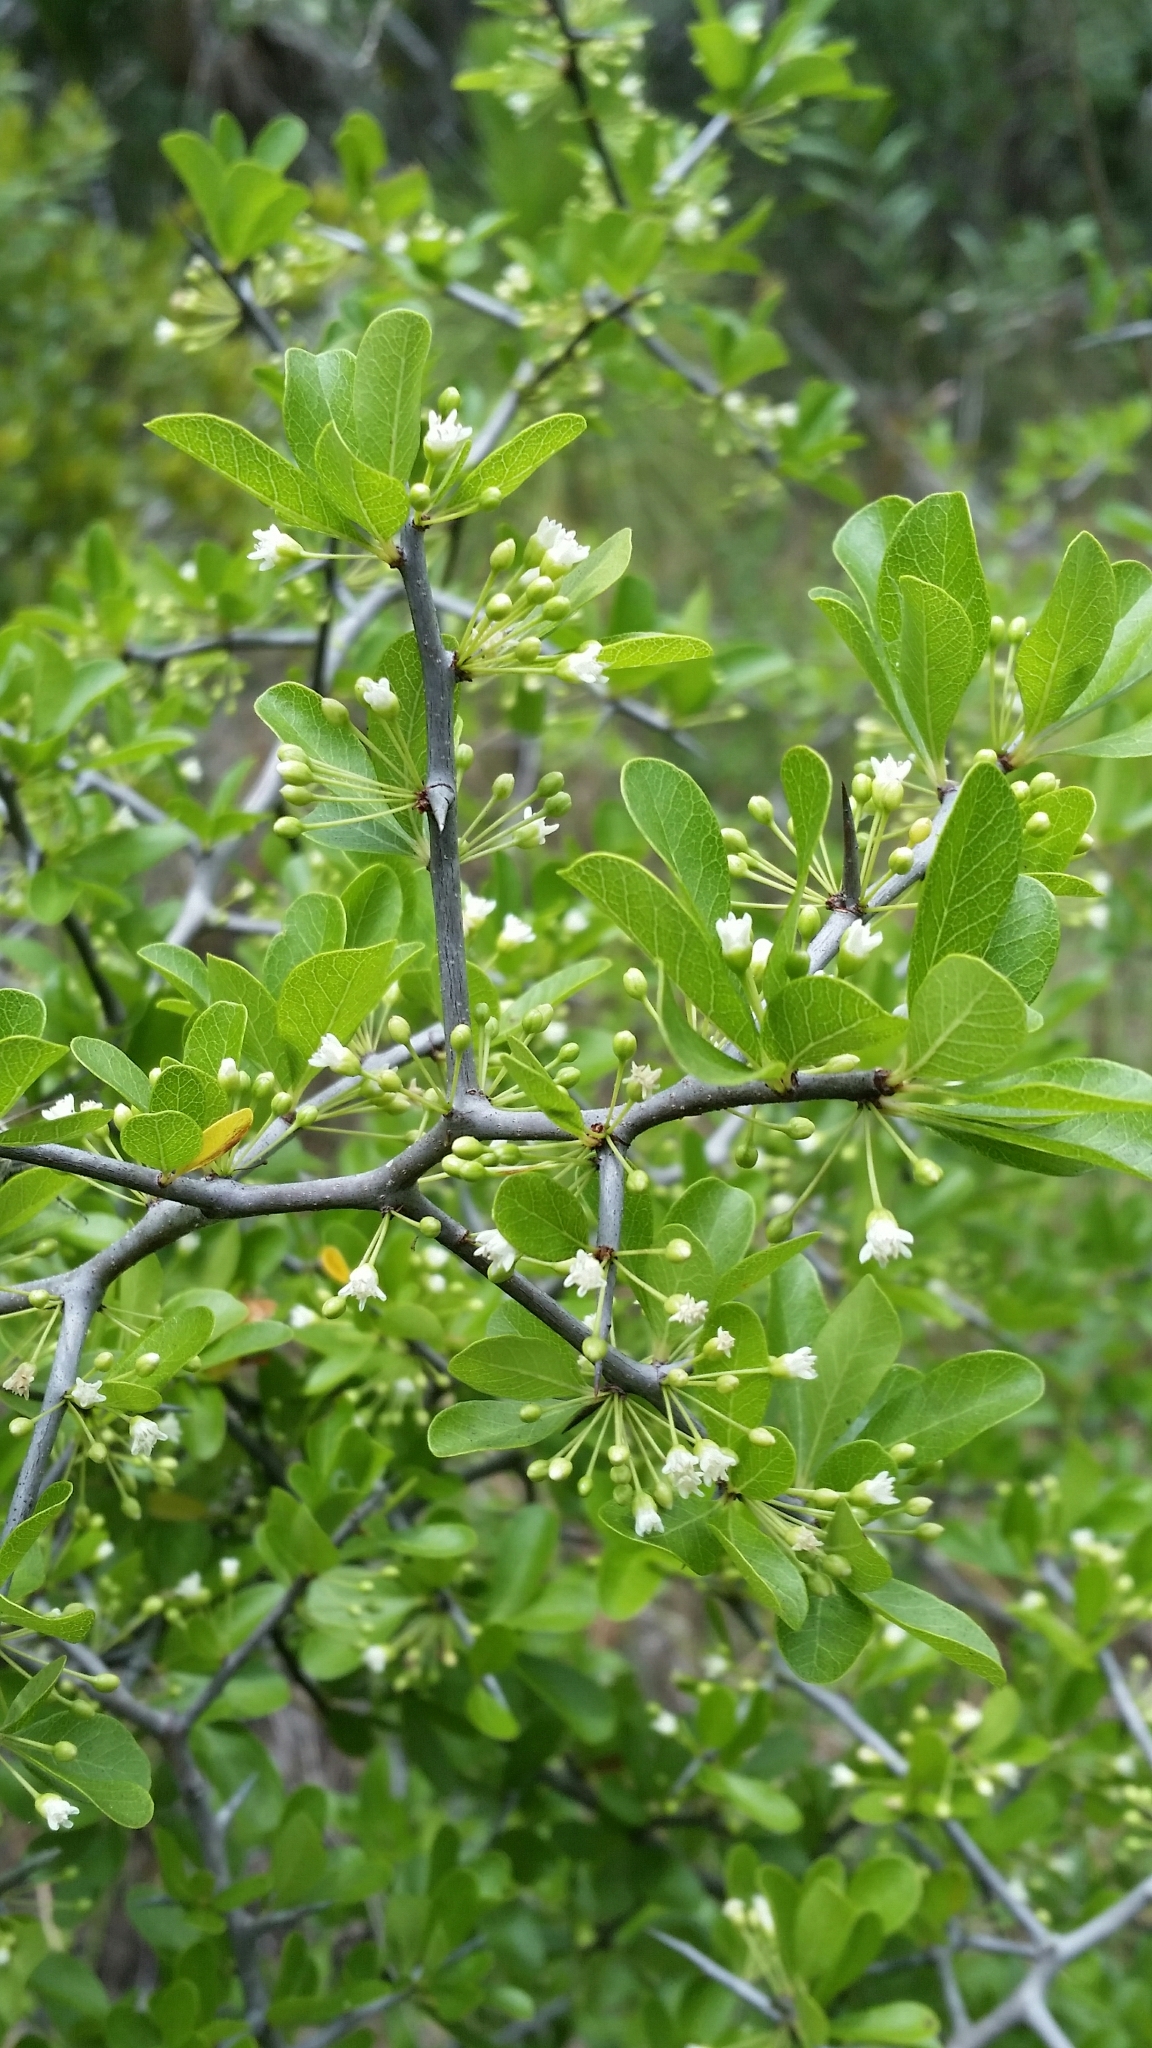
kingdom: Plantae
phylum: Tracheophyta
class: Magnoliopsida
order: Ericales
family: Sapotaceae
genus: Sideroxylon
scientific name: Sideroxylon reclinatum
